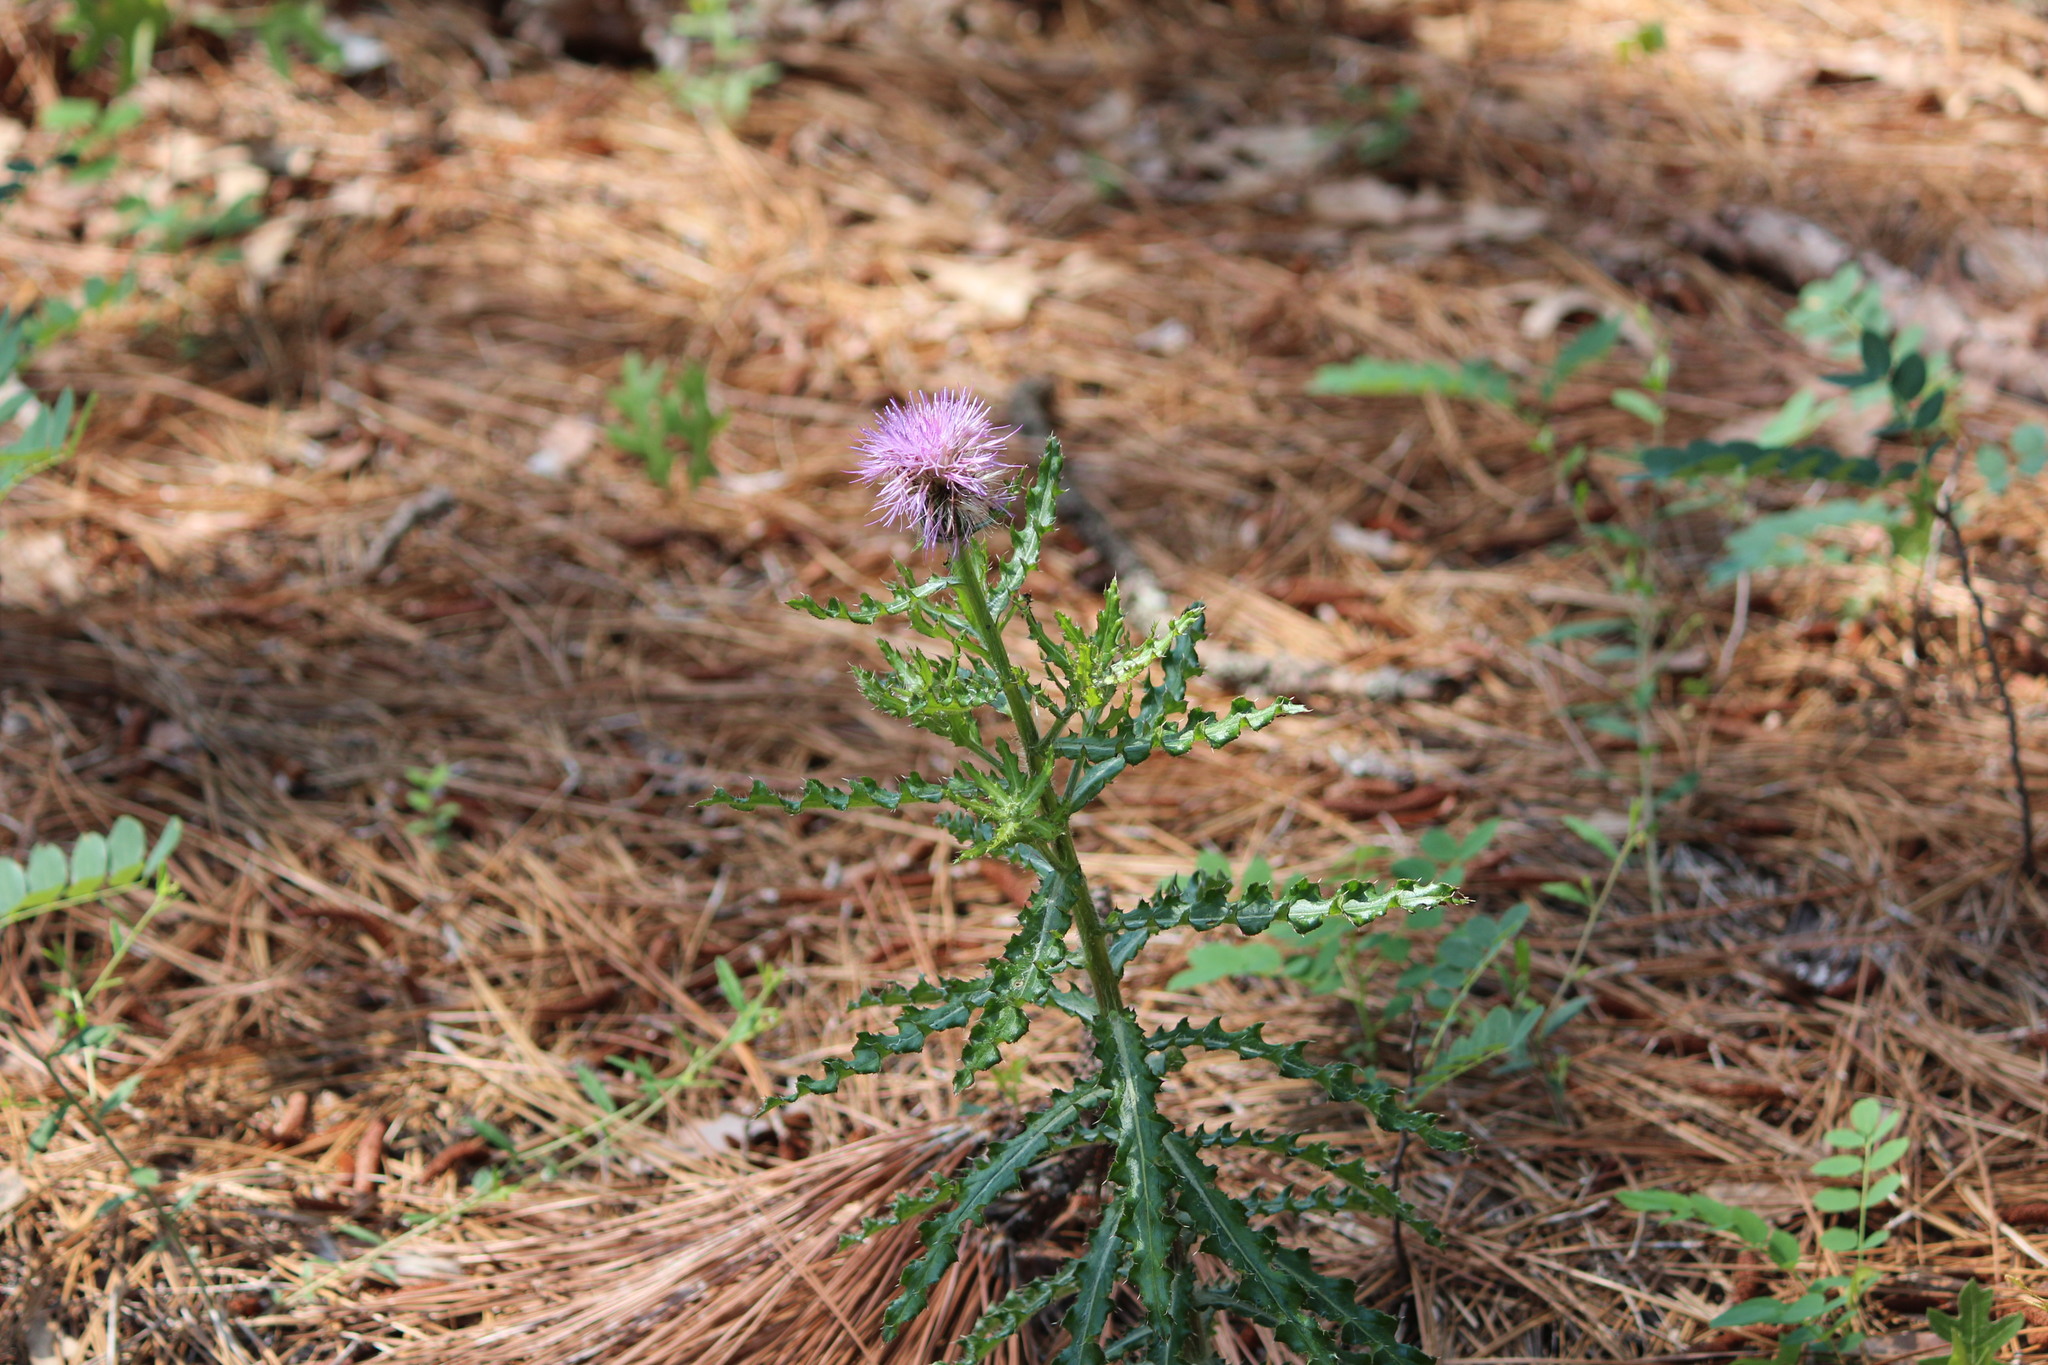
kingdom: Plantae
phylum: Tracheophyta
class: Magnoliopsida
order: Asterales
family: Asteraceae
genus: Cirsium
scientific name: Cirsium repandum
